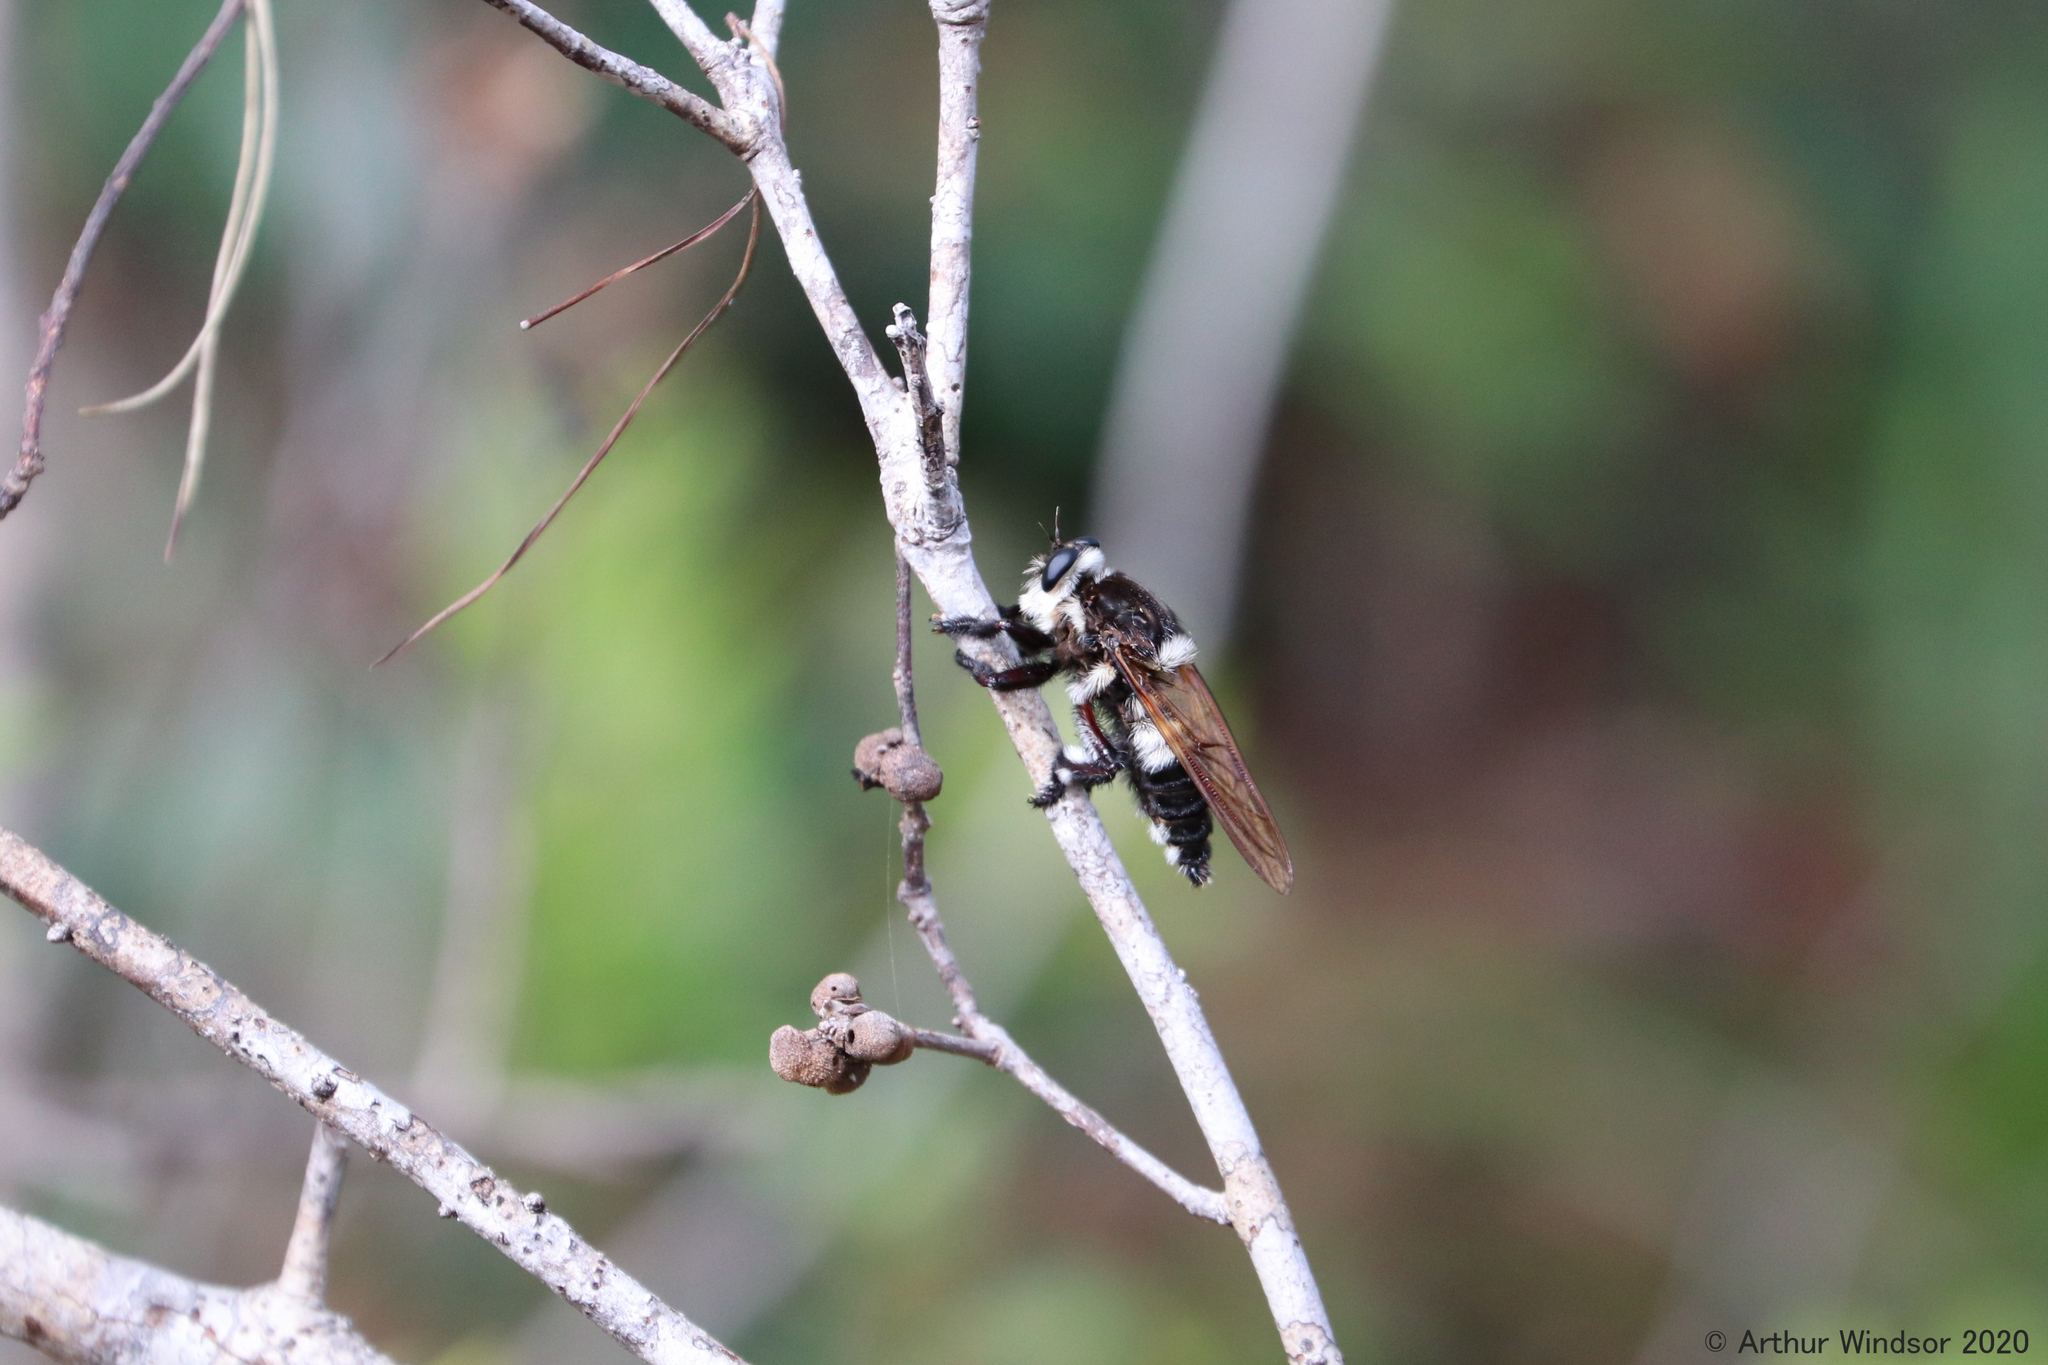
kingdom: Animalia
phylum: Arthropoda
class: Insecta
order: Diptera
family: Asilidae
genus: Mallophora
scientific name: Mallophora bomboides
